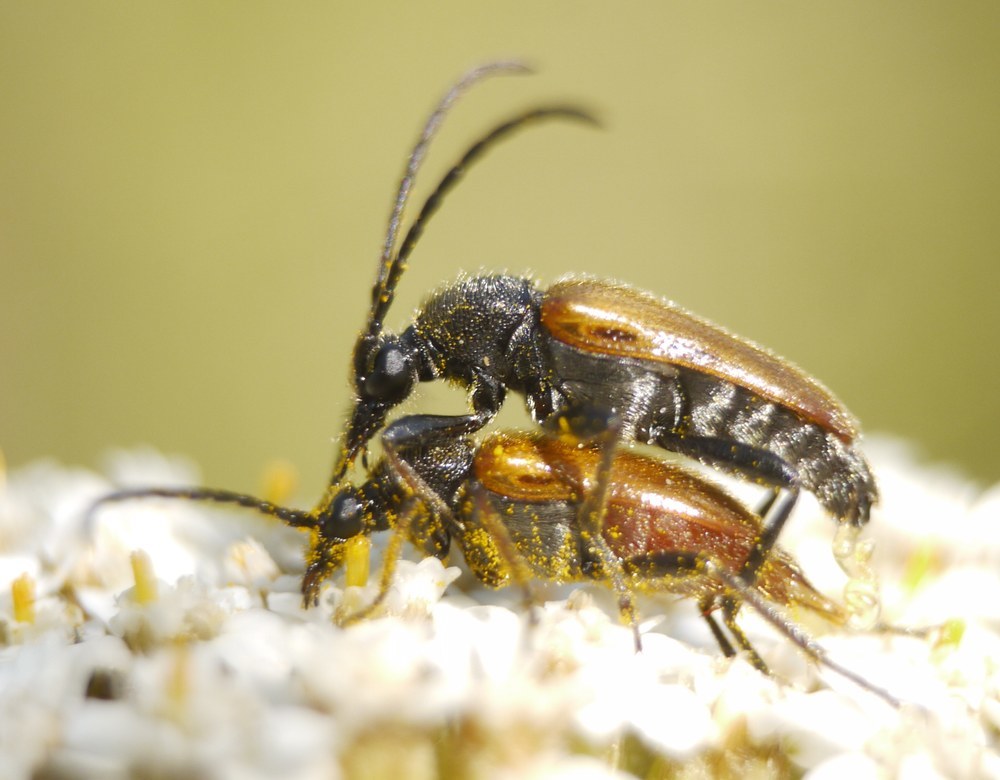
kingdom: Animalia
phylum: Arthropoda
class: Insecta
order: Coleoptera
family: Cerambycidae
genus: Pseudovadonia
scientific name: Pseudovadonia livida
